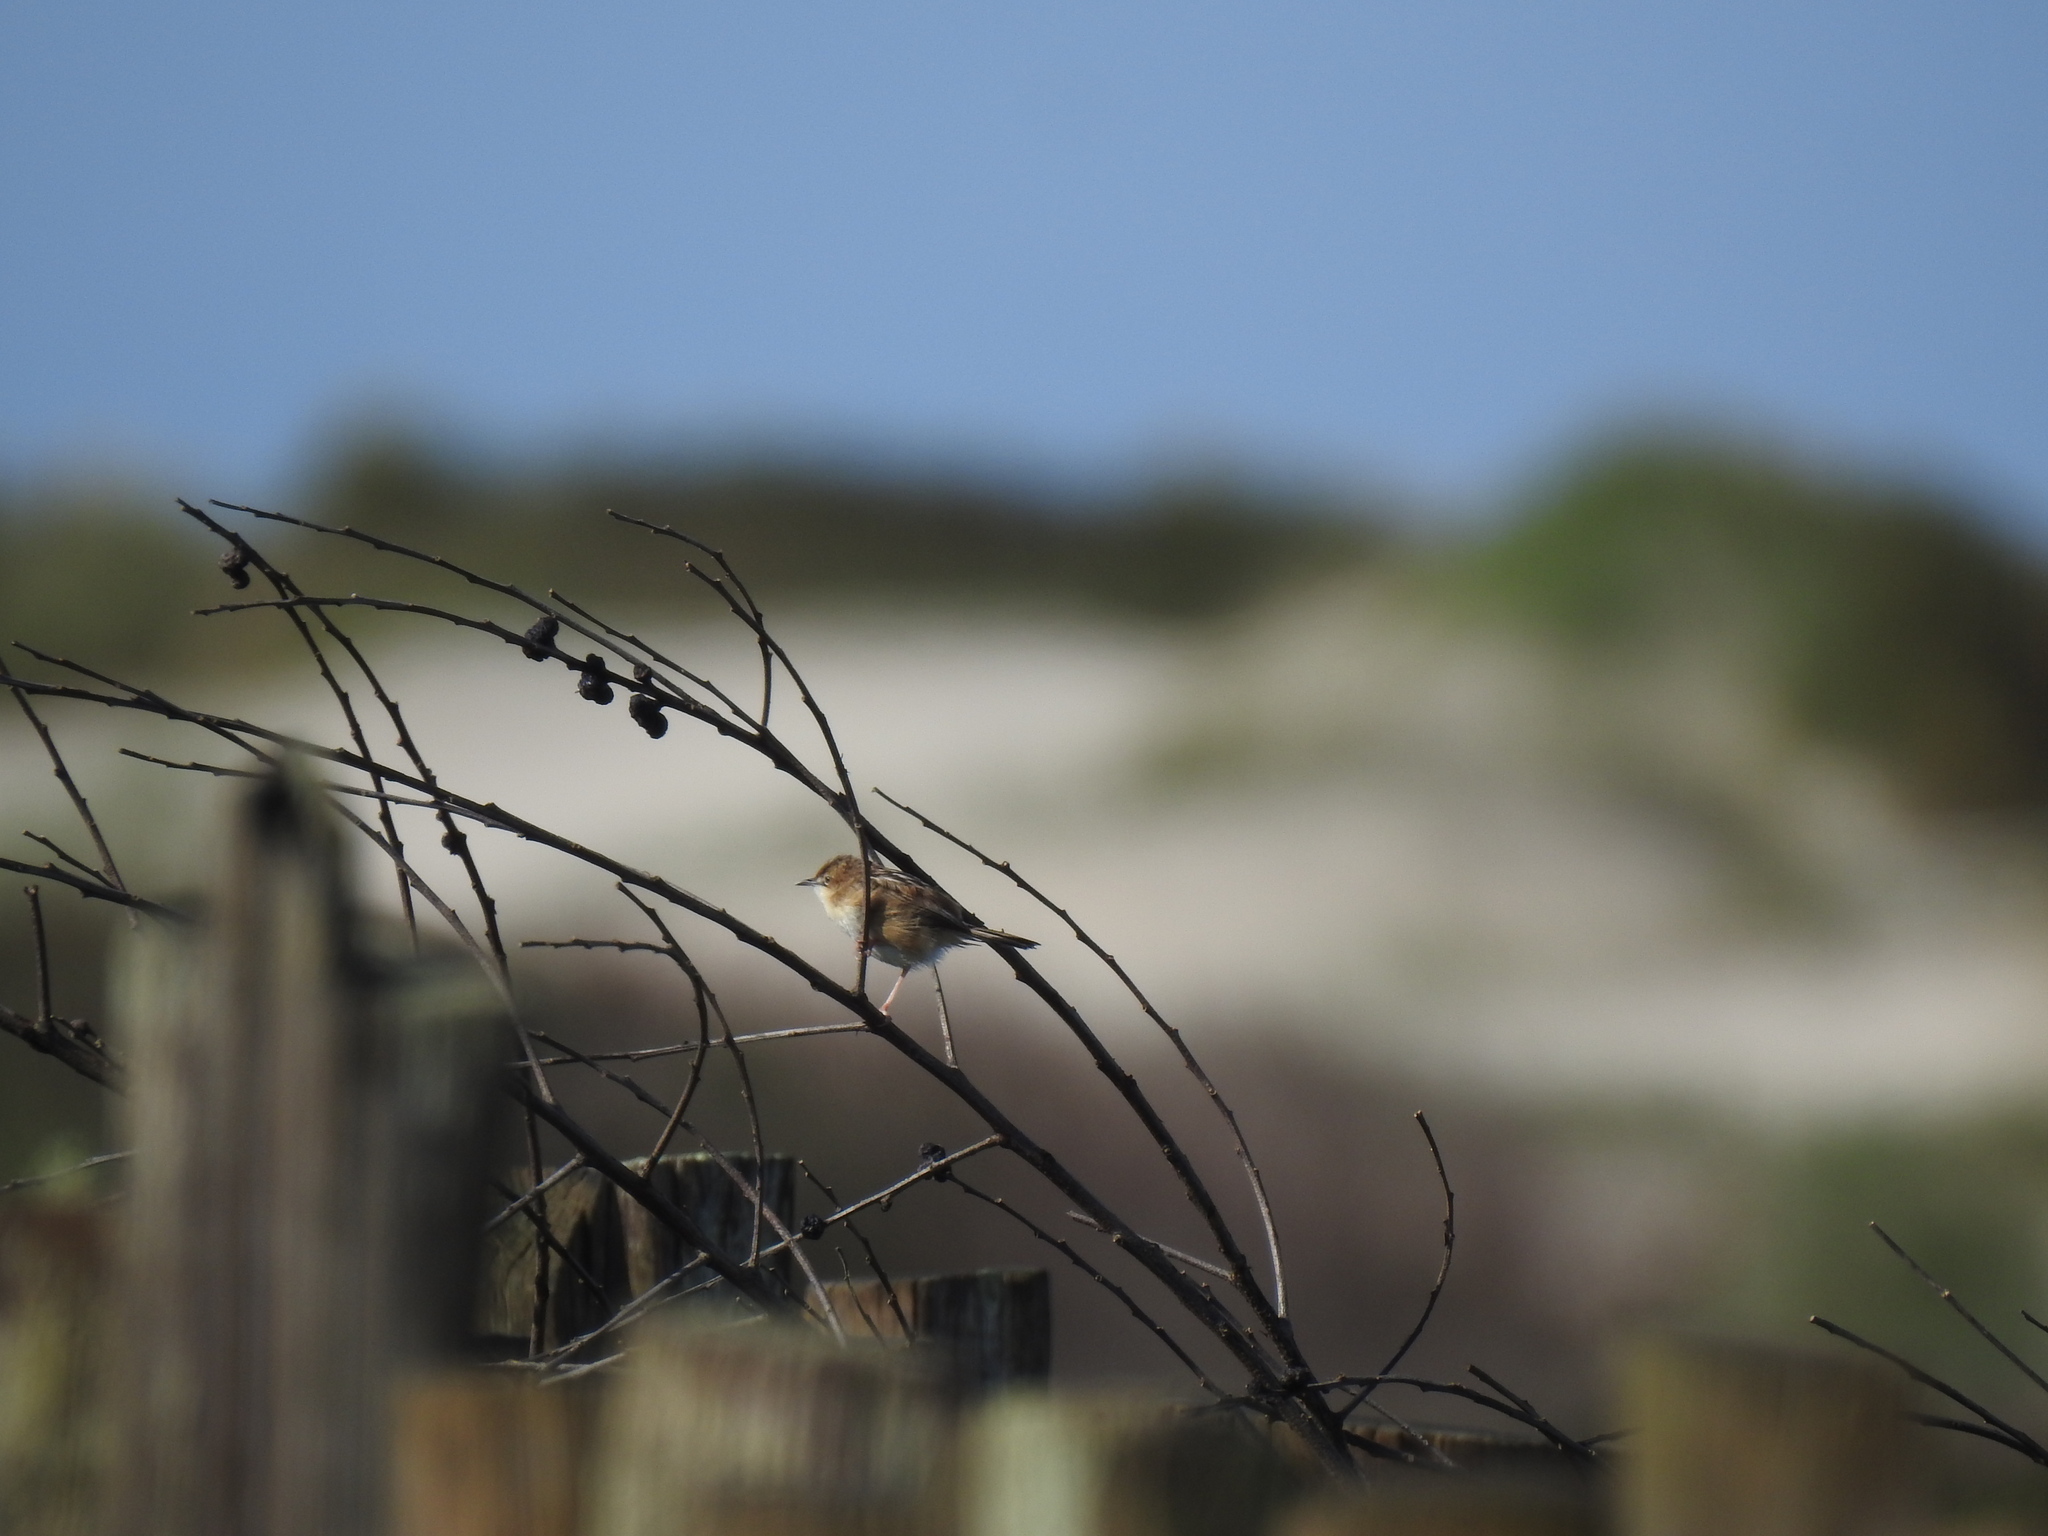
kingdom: Animalia
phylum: Chordata
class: Aves
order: Passeriformes
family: Cisticolidae
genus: Cisticola
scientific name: Cisticola juncidis
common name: Zitting cisticola
